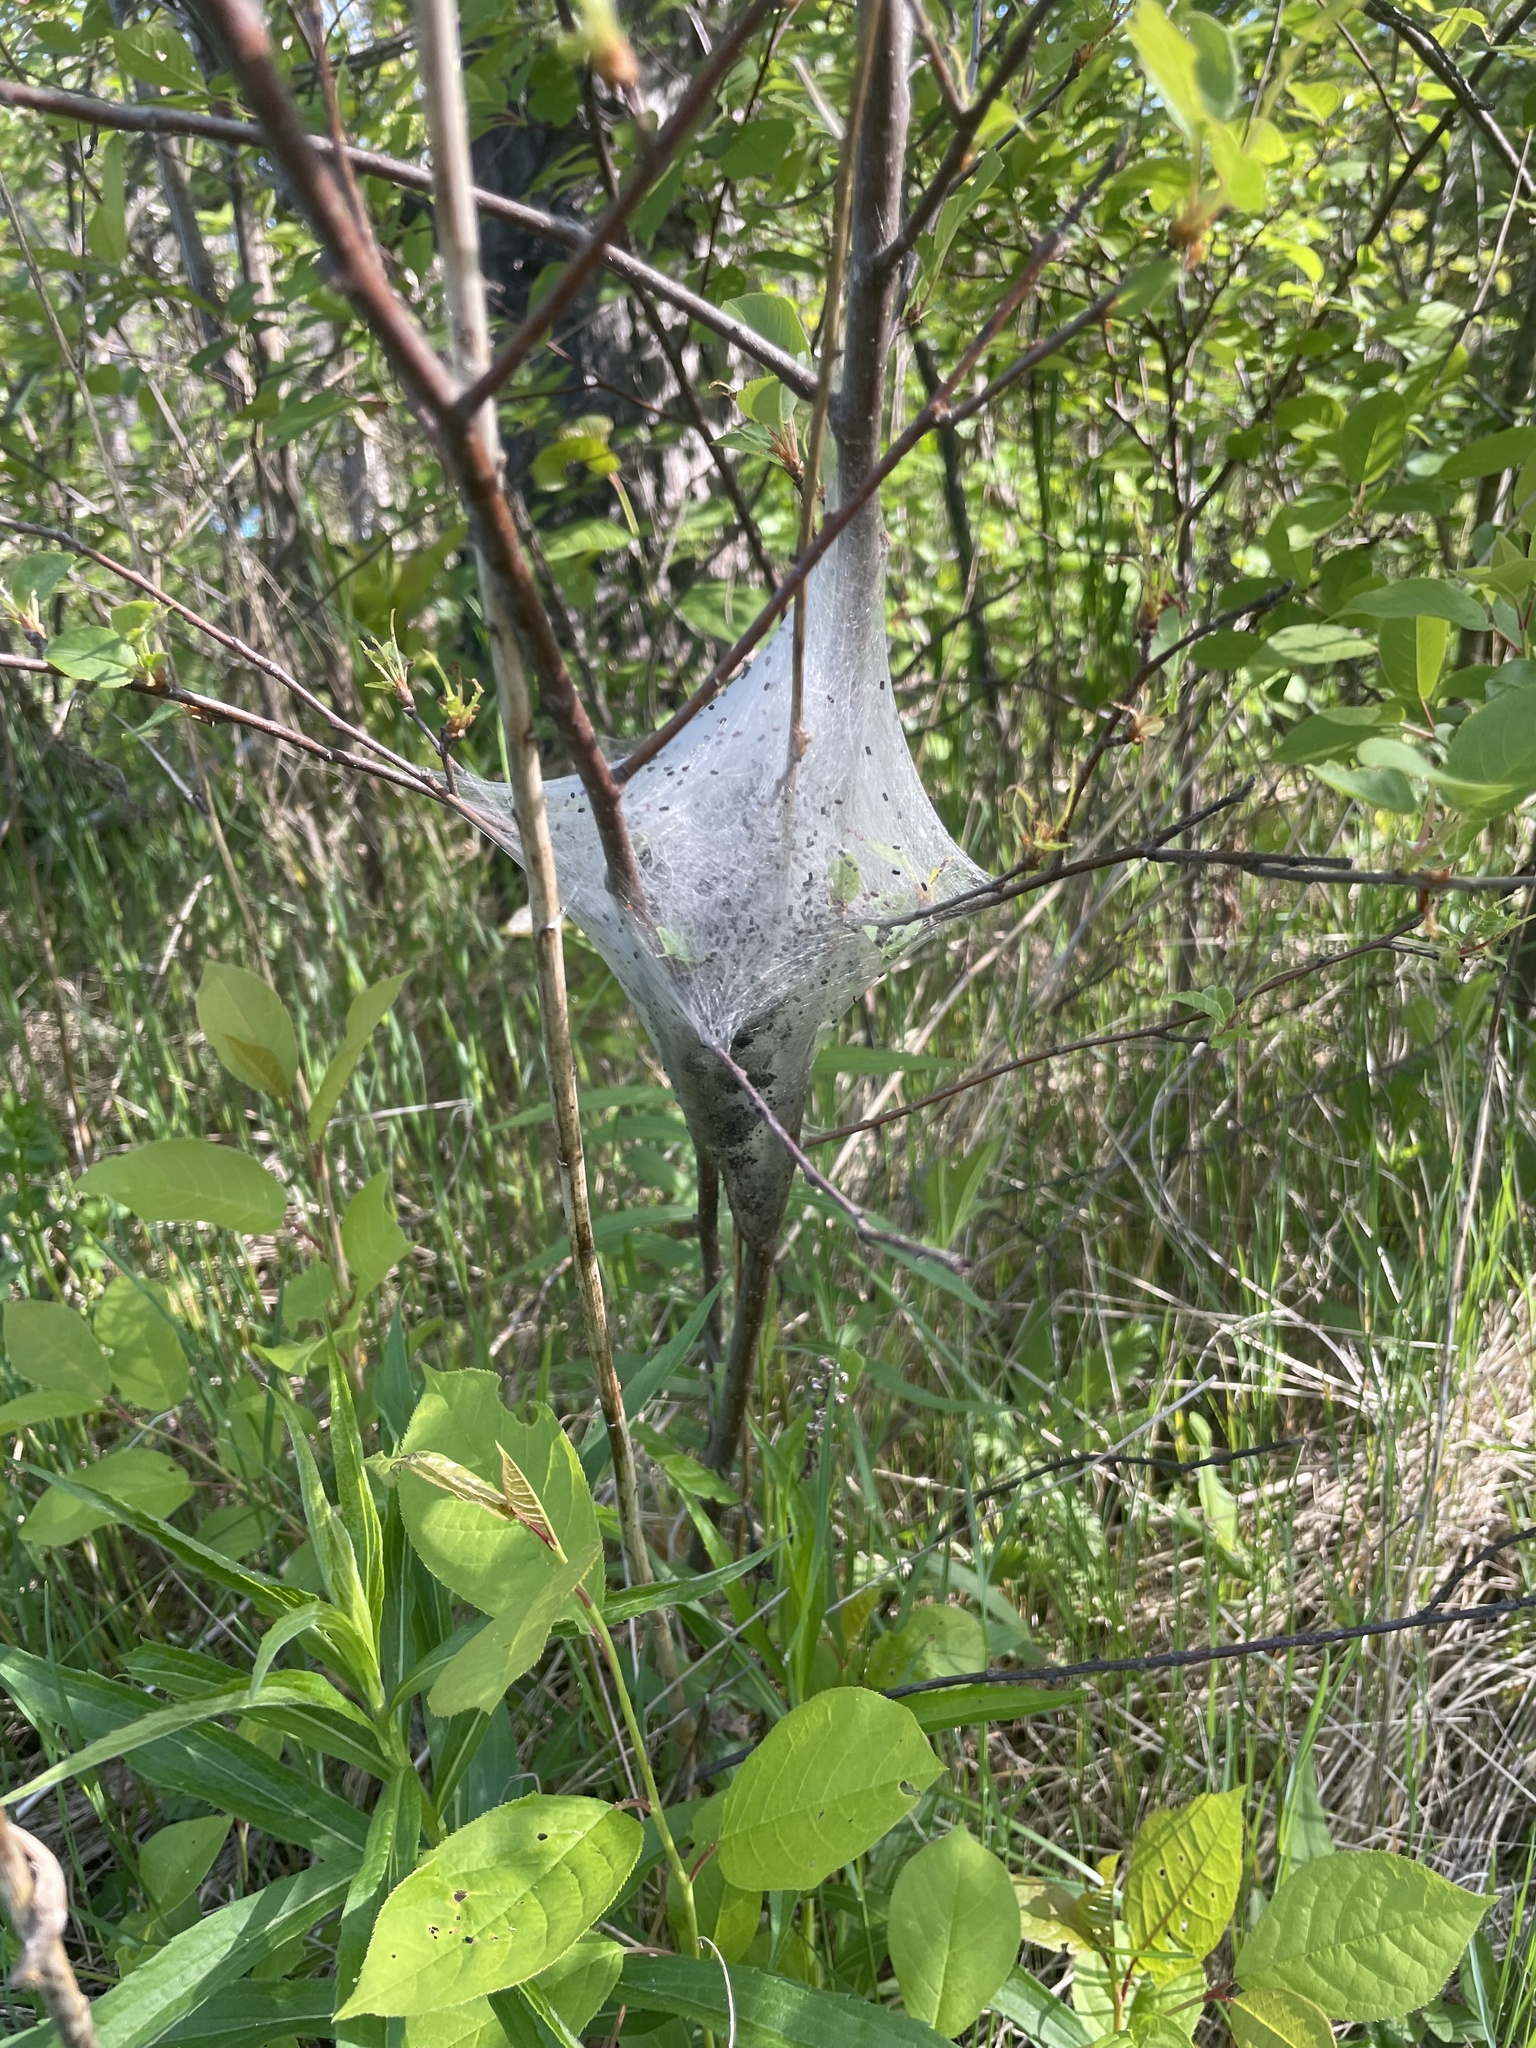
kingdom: Animalia
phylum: Arthropoda
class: Insecta
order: Lepidoptera
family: Lasiocampidae
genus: Malacosoma
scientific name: Malacosoma americana
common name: Eastern tent caterpillar moth
